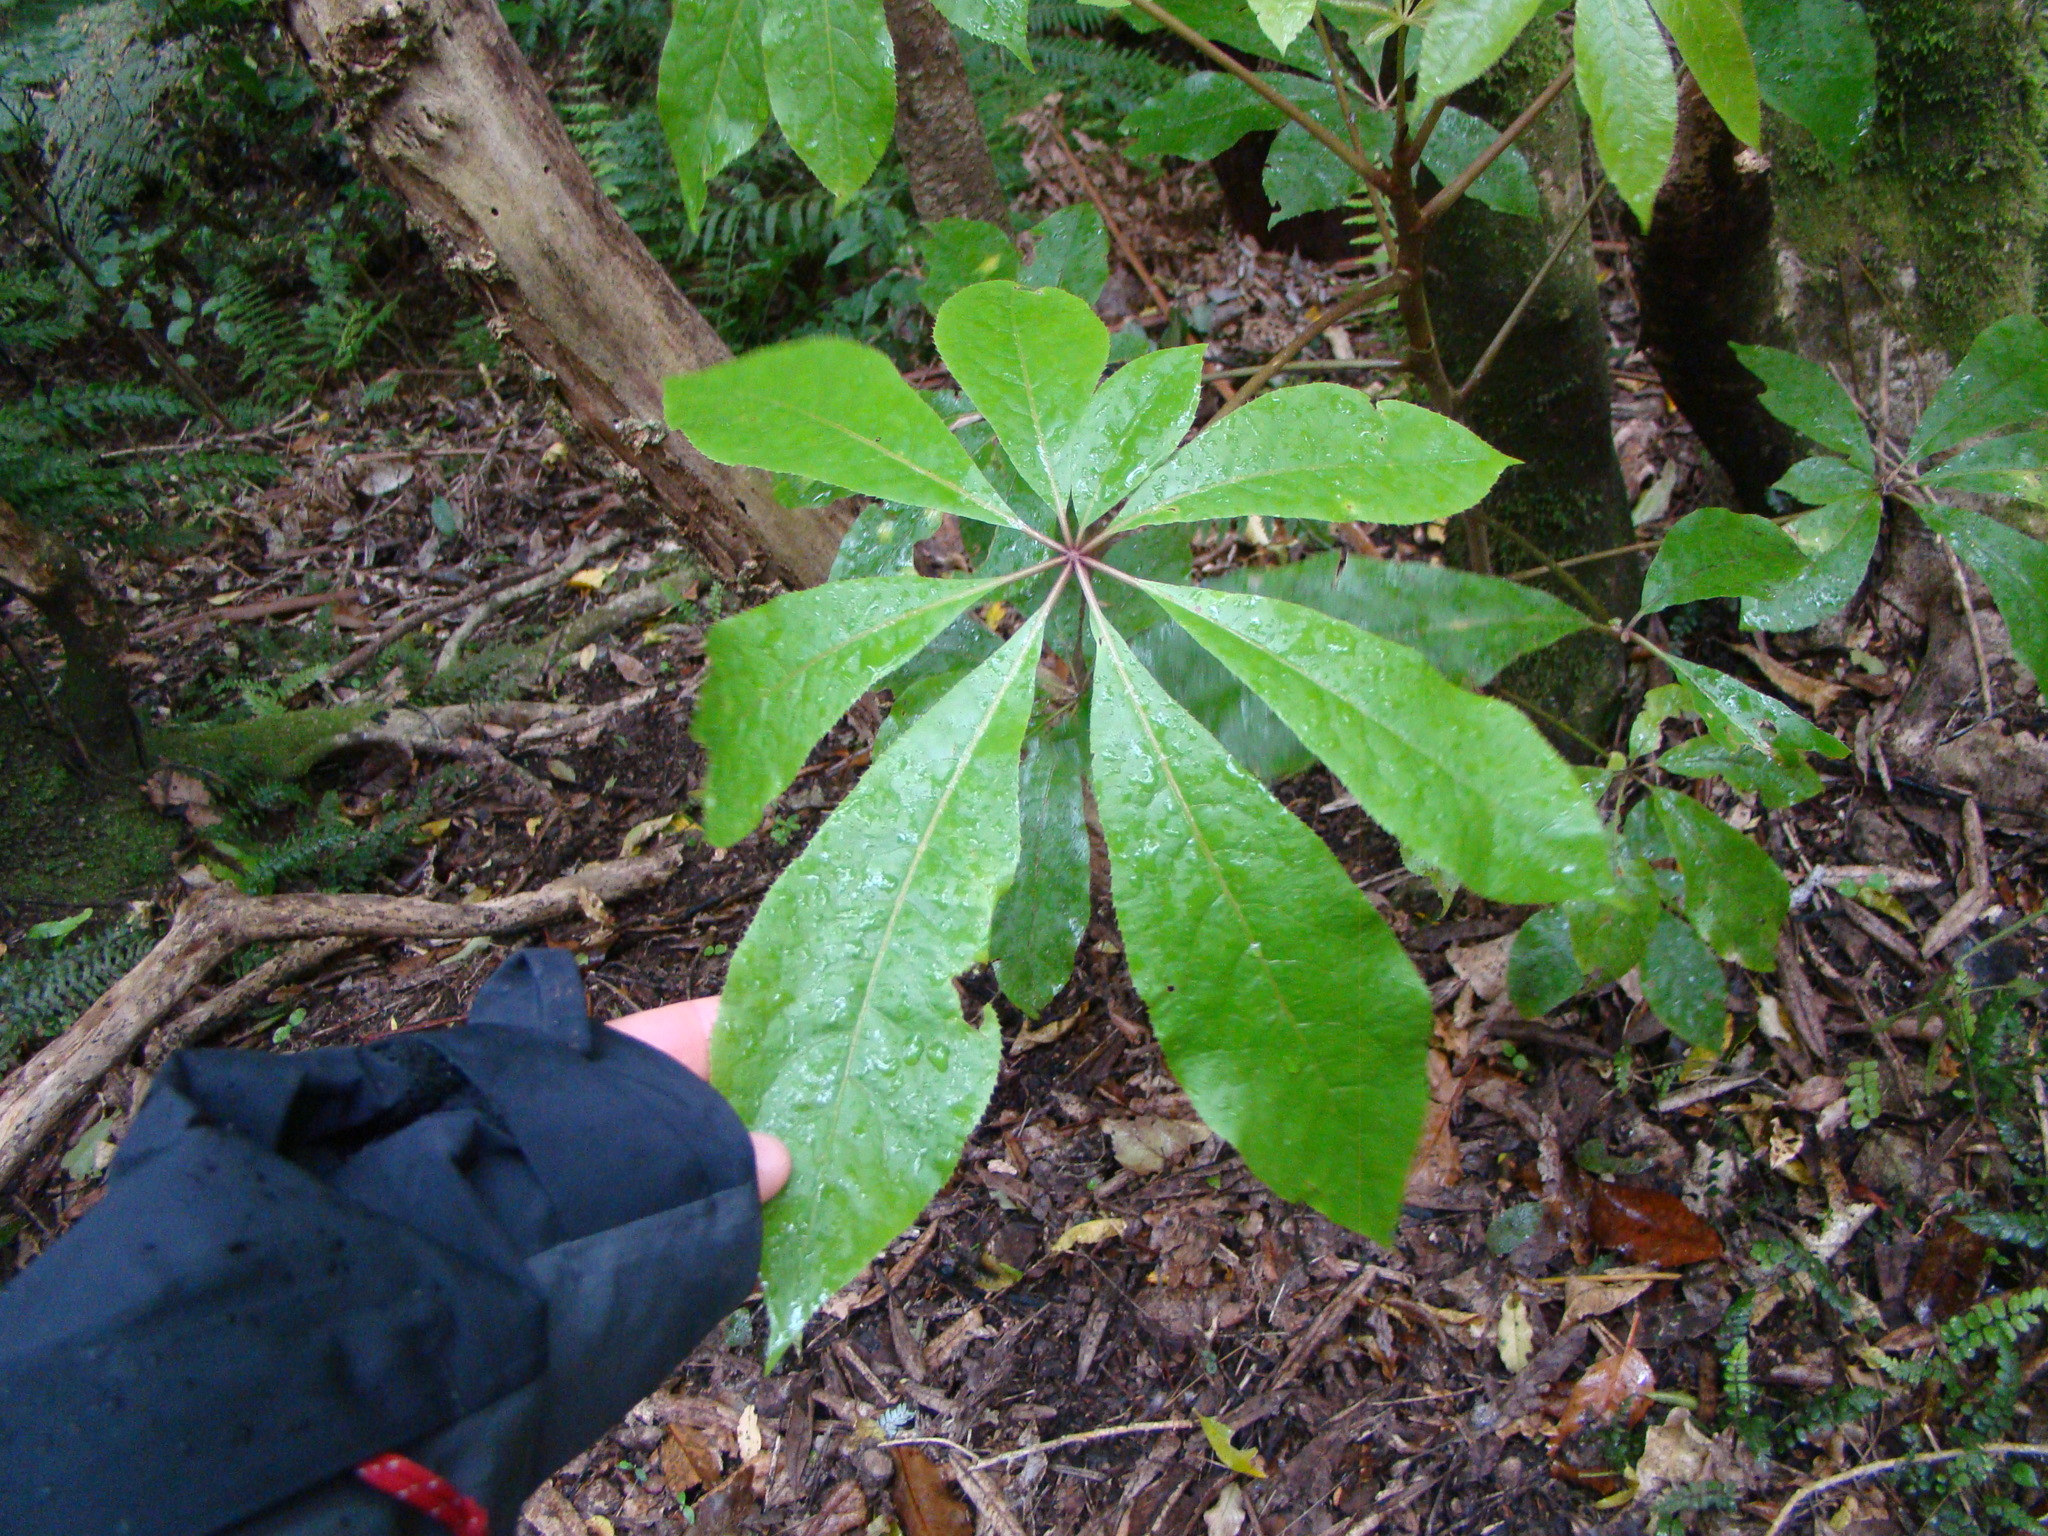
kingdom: Plantae
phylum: Tracheophyta
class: Magnoliopsida
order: Apiales
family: Araliaceae
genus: Schefflera
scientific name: Schefflera digitata
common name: Pate
